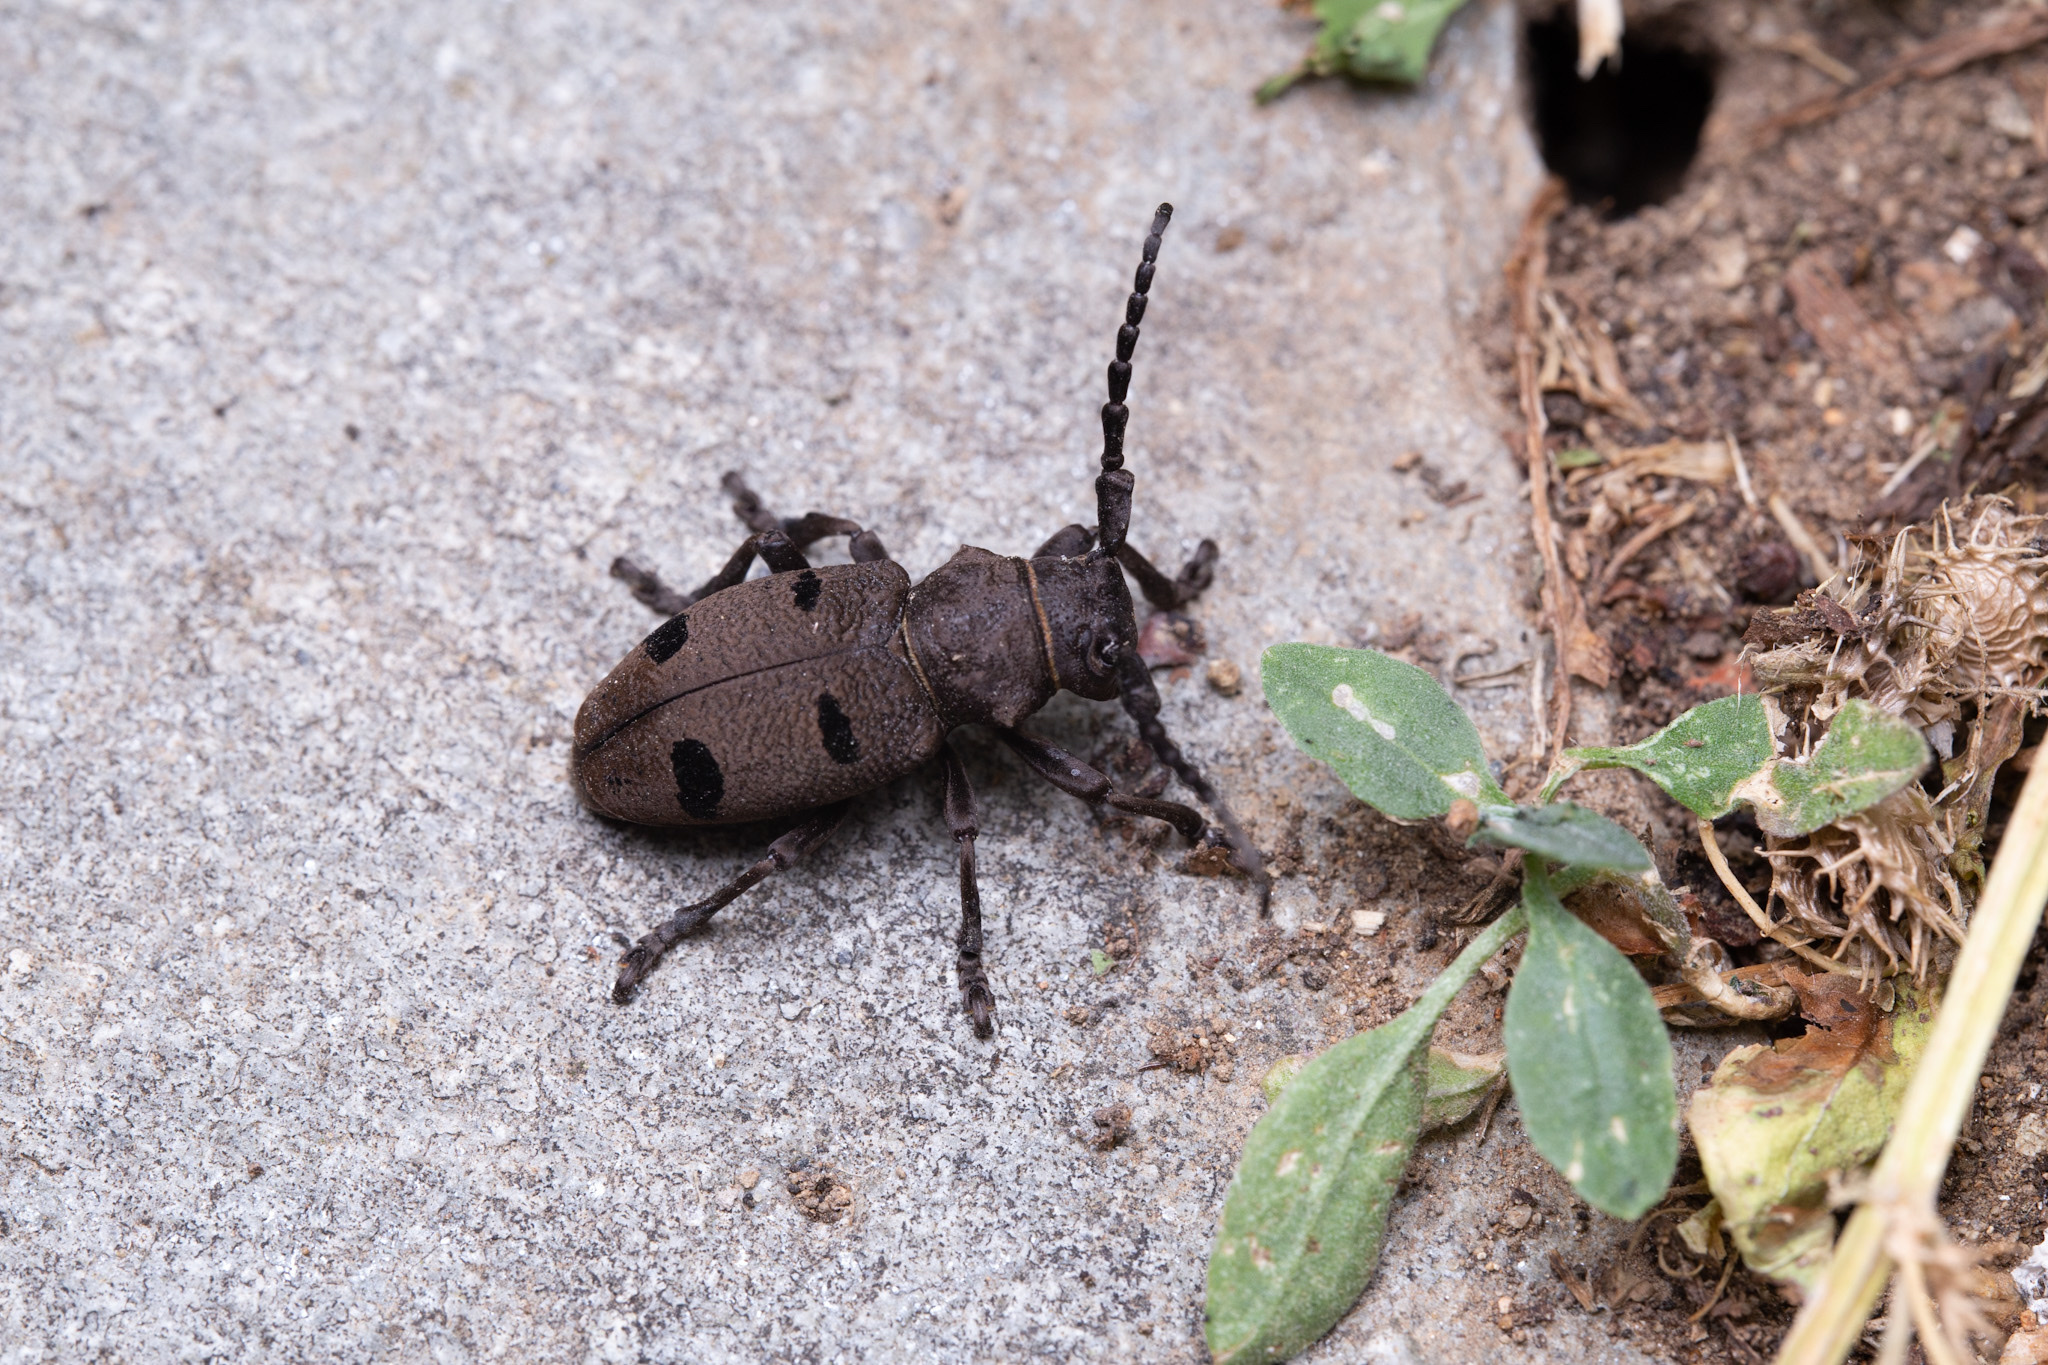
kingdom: Animalia
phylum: Arthropoda
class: Insecta
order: Coleoptera
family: Cerambycidae
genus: Herophila
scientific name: Herophila tristis
